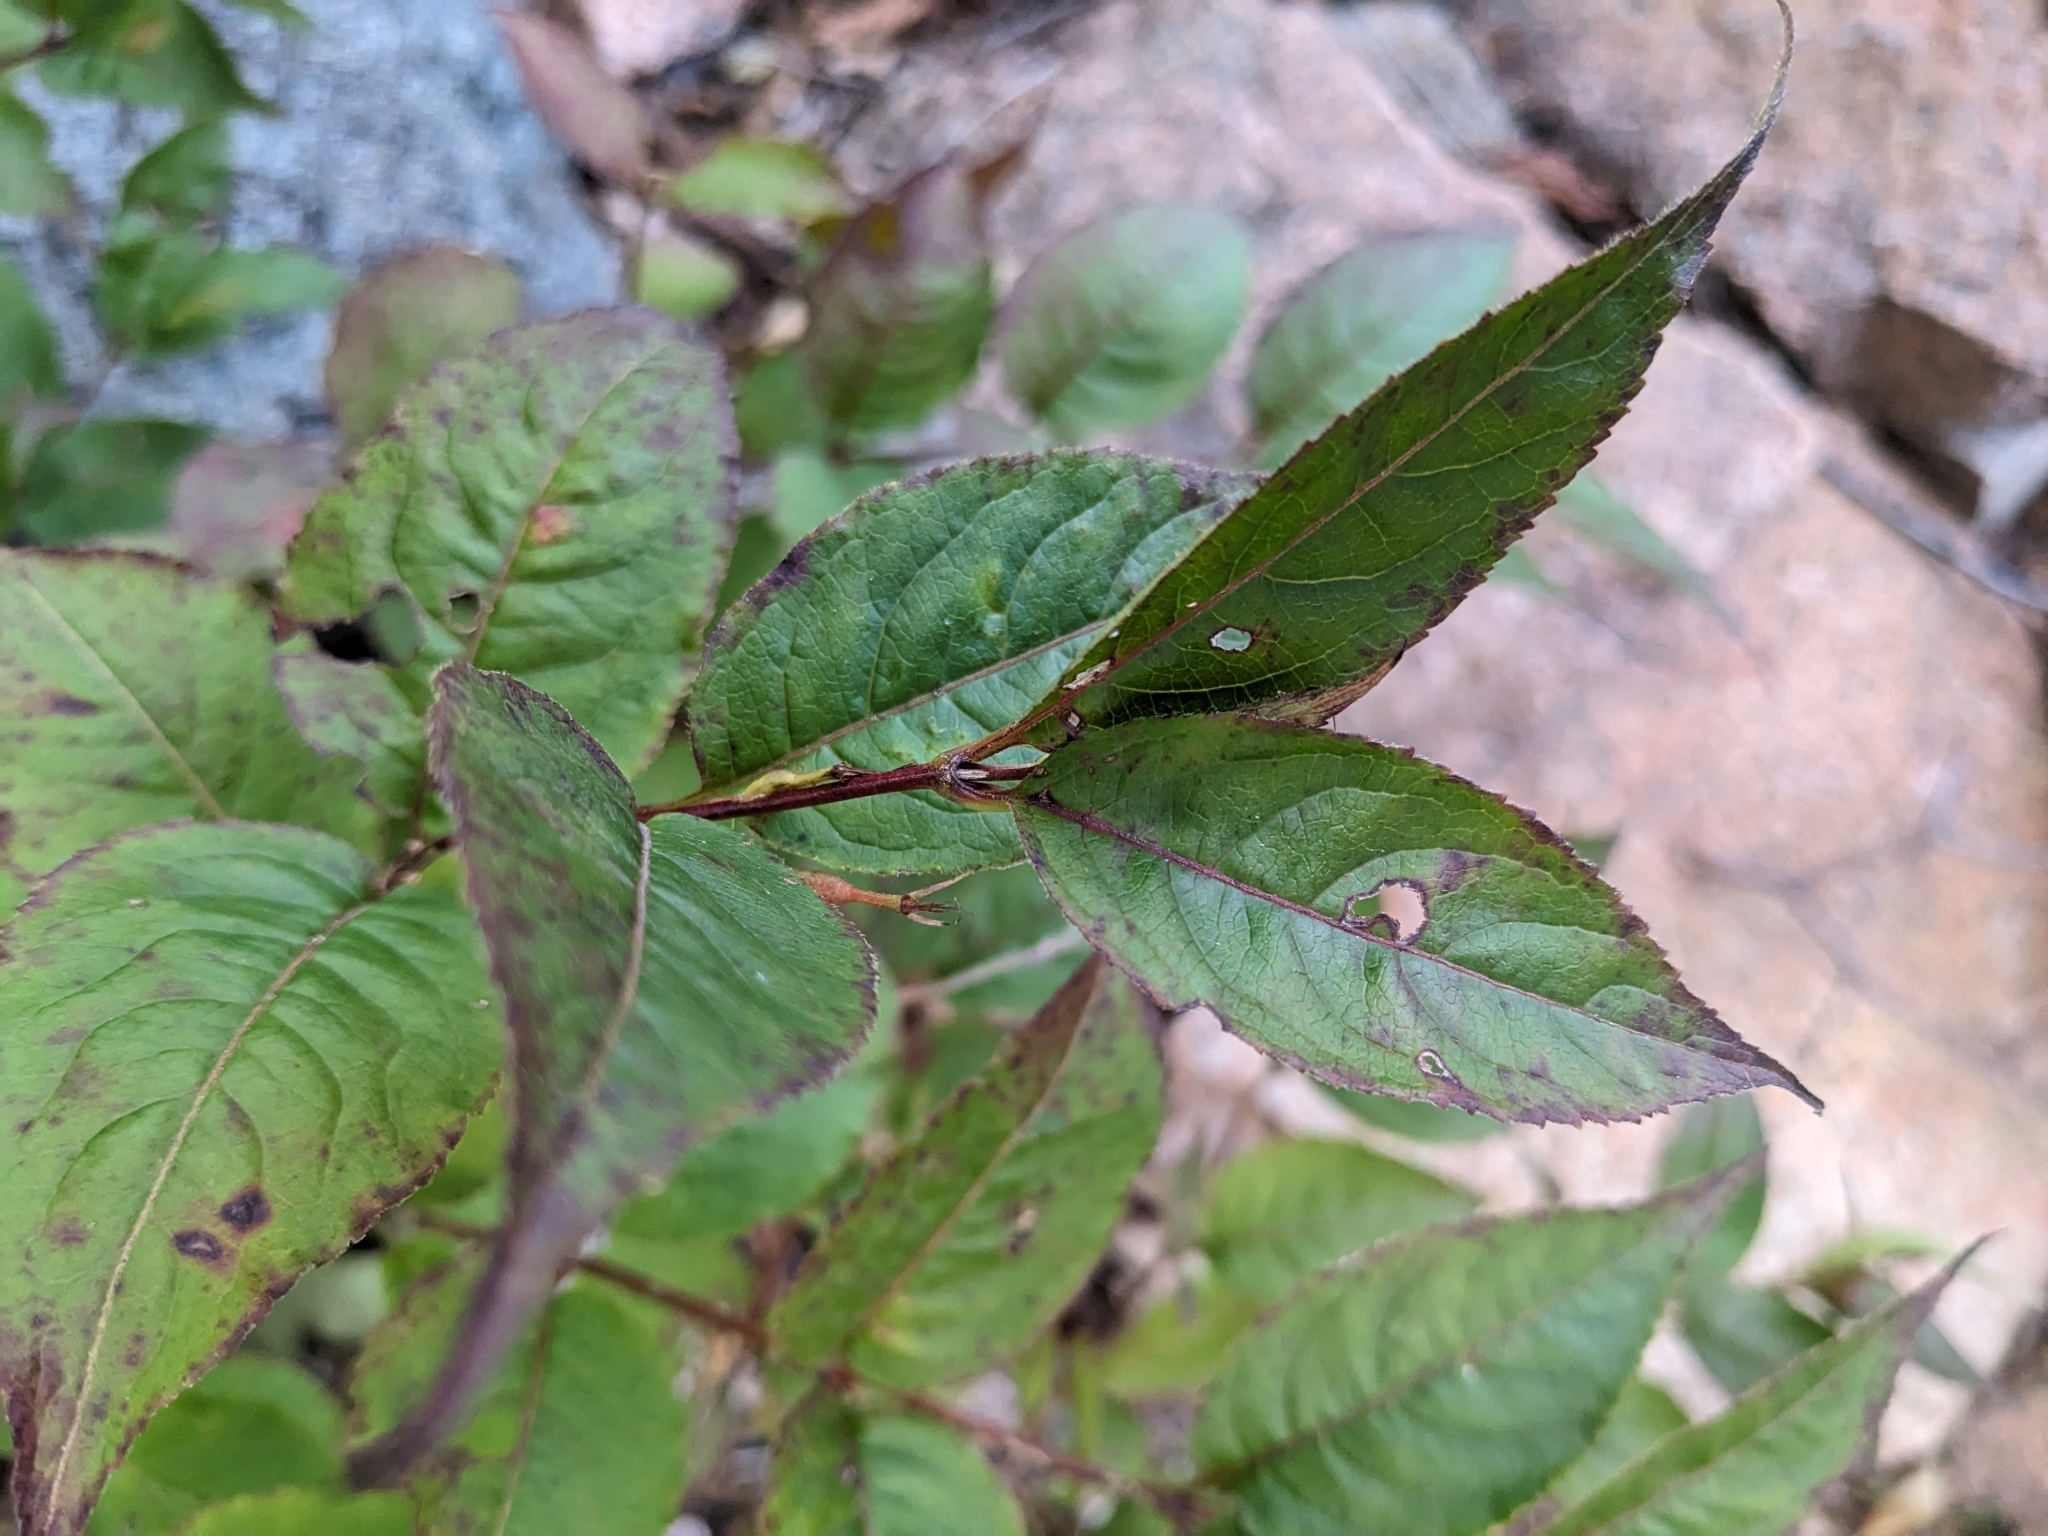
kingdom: Plantae
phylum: Tracheophyta
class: Magnoliopsida
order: Dipsacales
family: Caprifoliaceae
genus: Diervilla
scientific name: Diervilla lonicera
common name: Bush-honeysuckle
